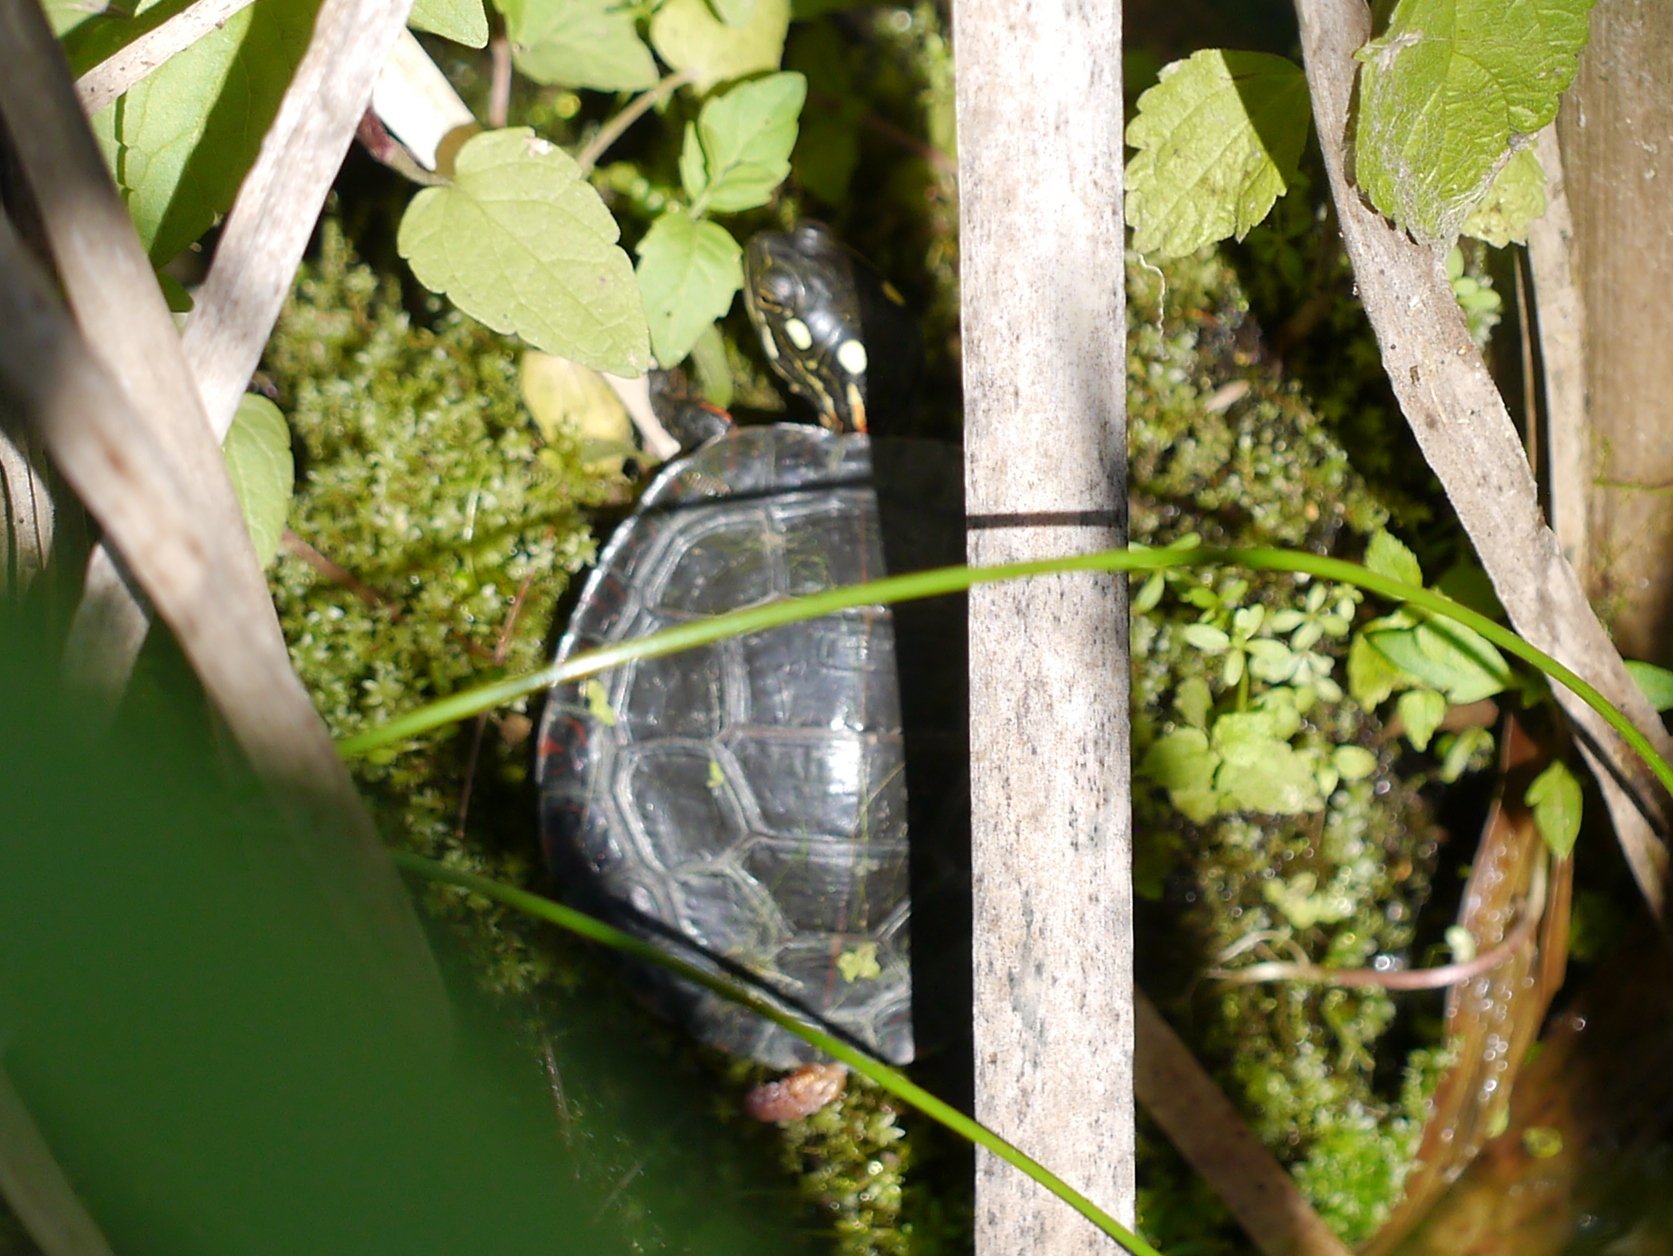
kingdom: Animalia
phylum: Chordata
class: Testudines
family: Emydidae
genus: Chrysemys
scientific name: Chrysemys picta
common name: Painted turtle
